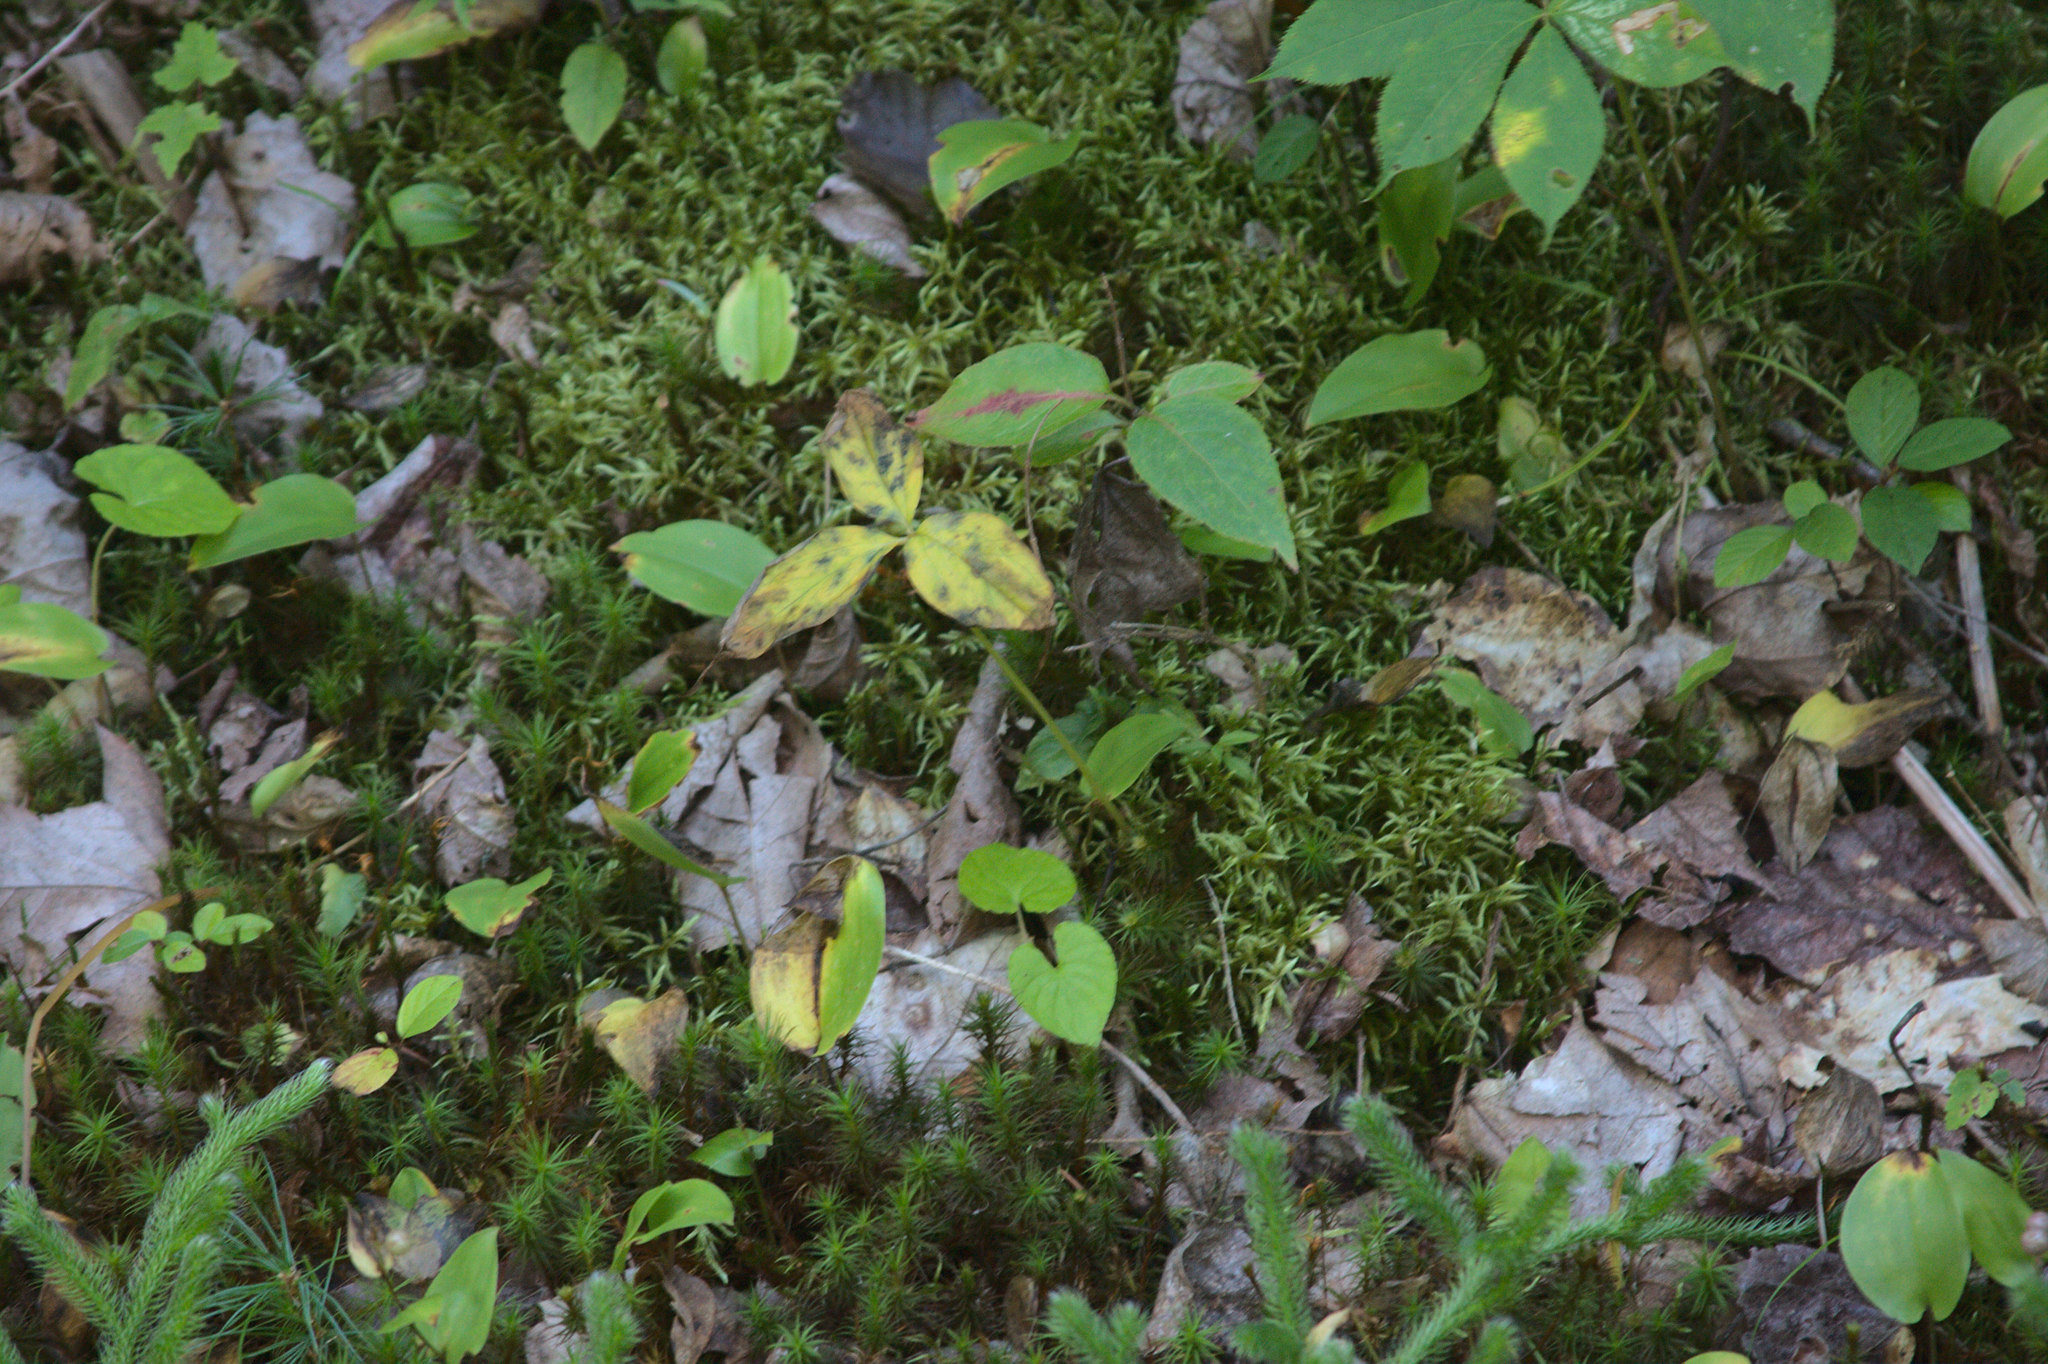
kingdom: Plantae
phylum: Tracheophyta
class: Liliopsida
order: Asparagales
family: Asparagaceae
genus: Maianthemum
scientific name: Maianthemum canadense
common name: False lily-of-the-valley
